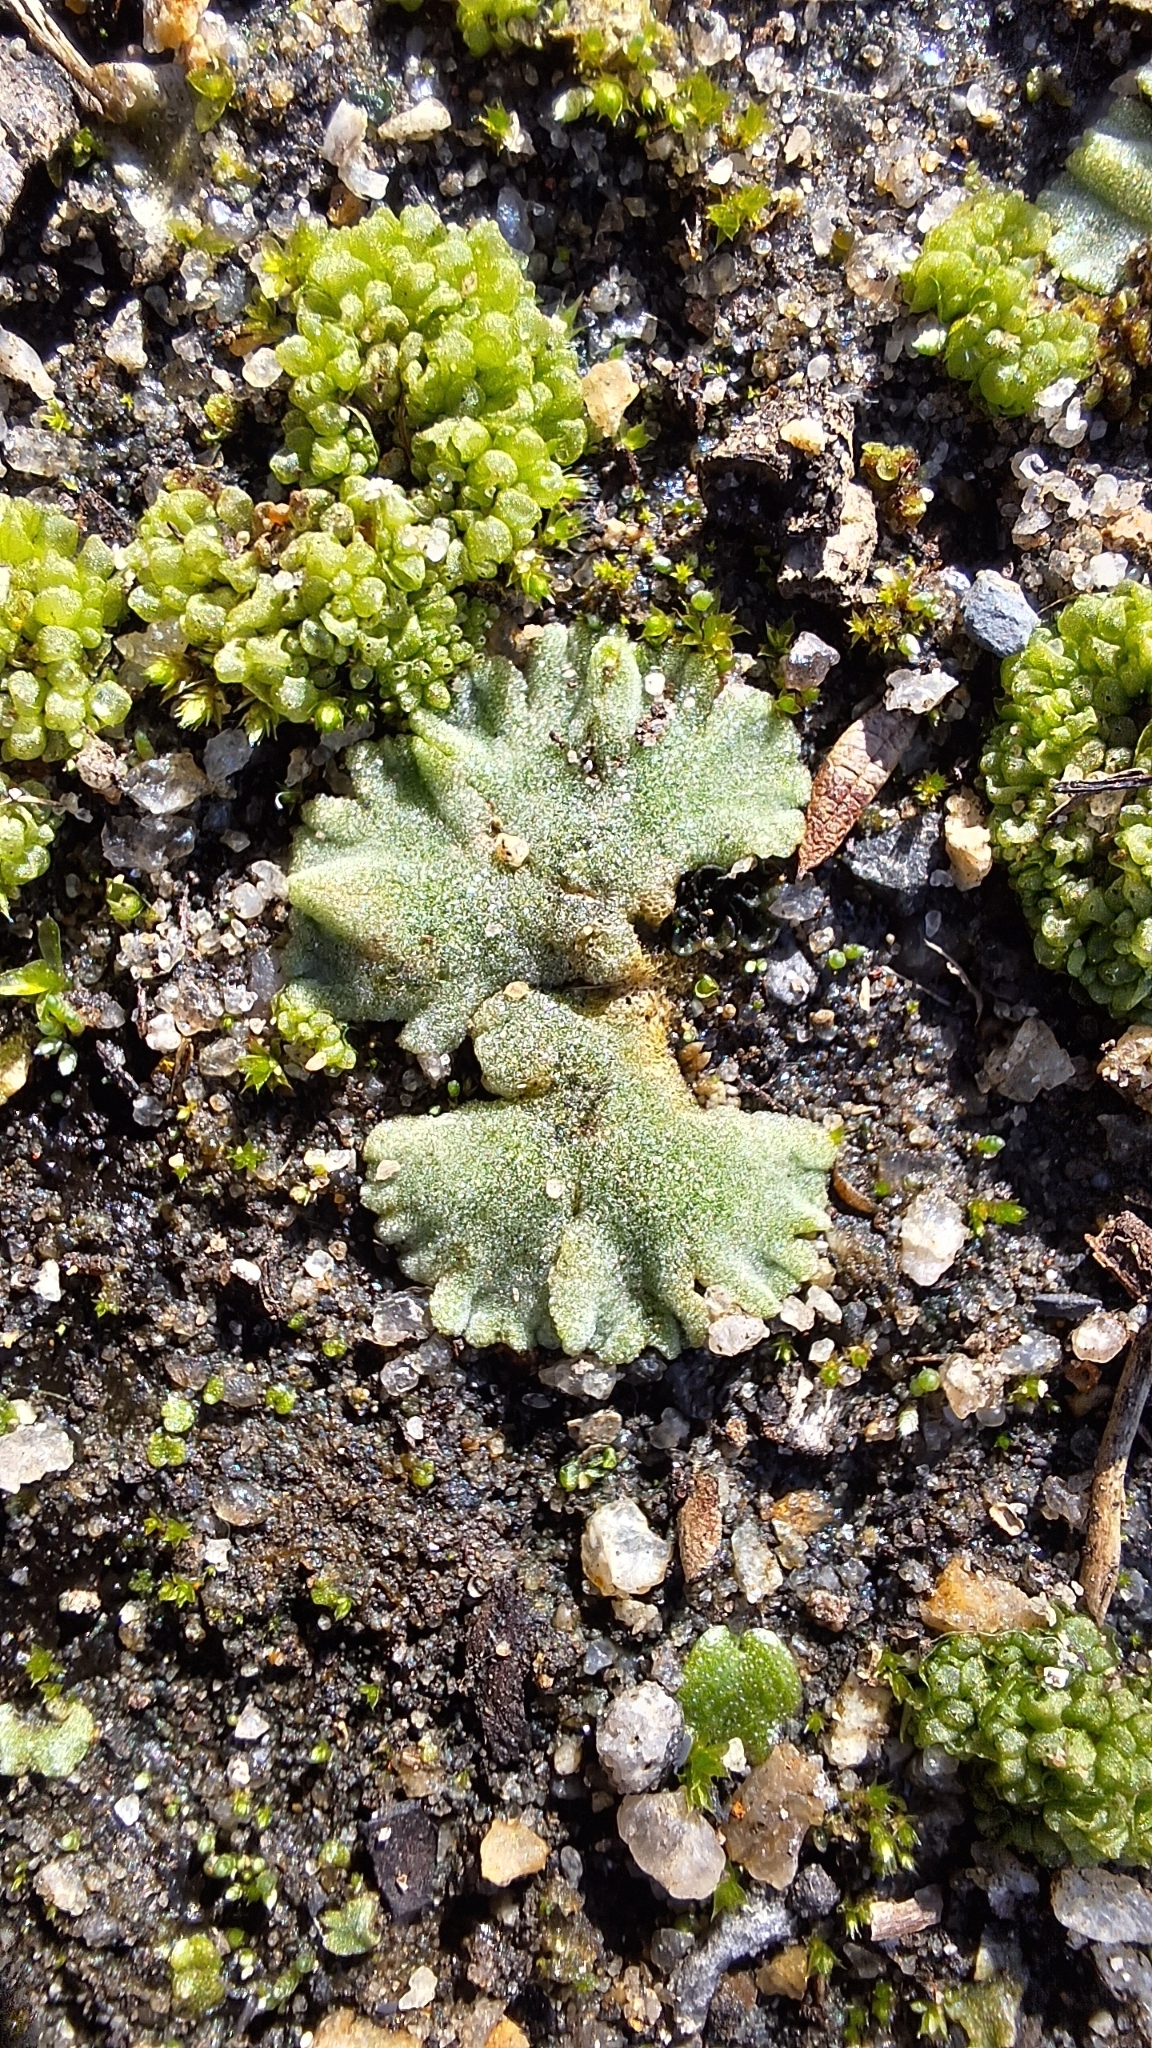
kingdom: Plantae
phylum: Marchantiophyta
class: Marchantiopsida
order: Marchantiales
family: Ricciaceae
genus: Riccia
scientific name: Riccia crystallina
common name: Blue crystalwort
